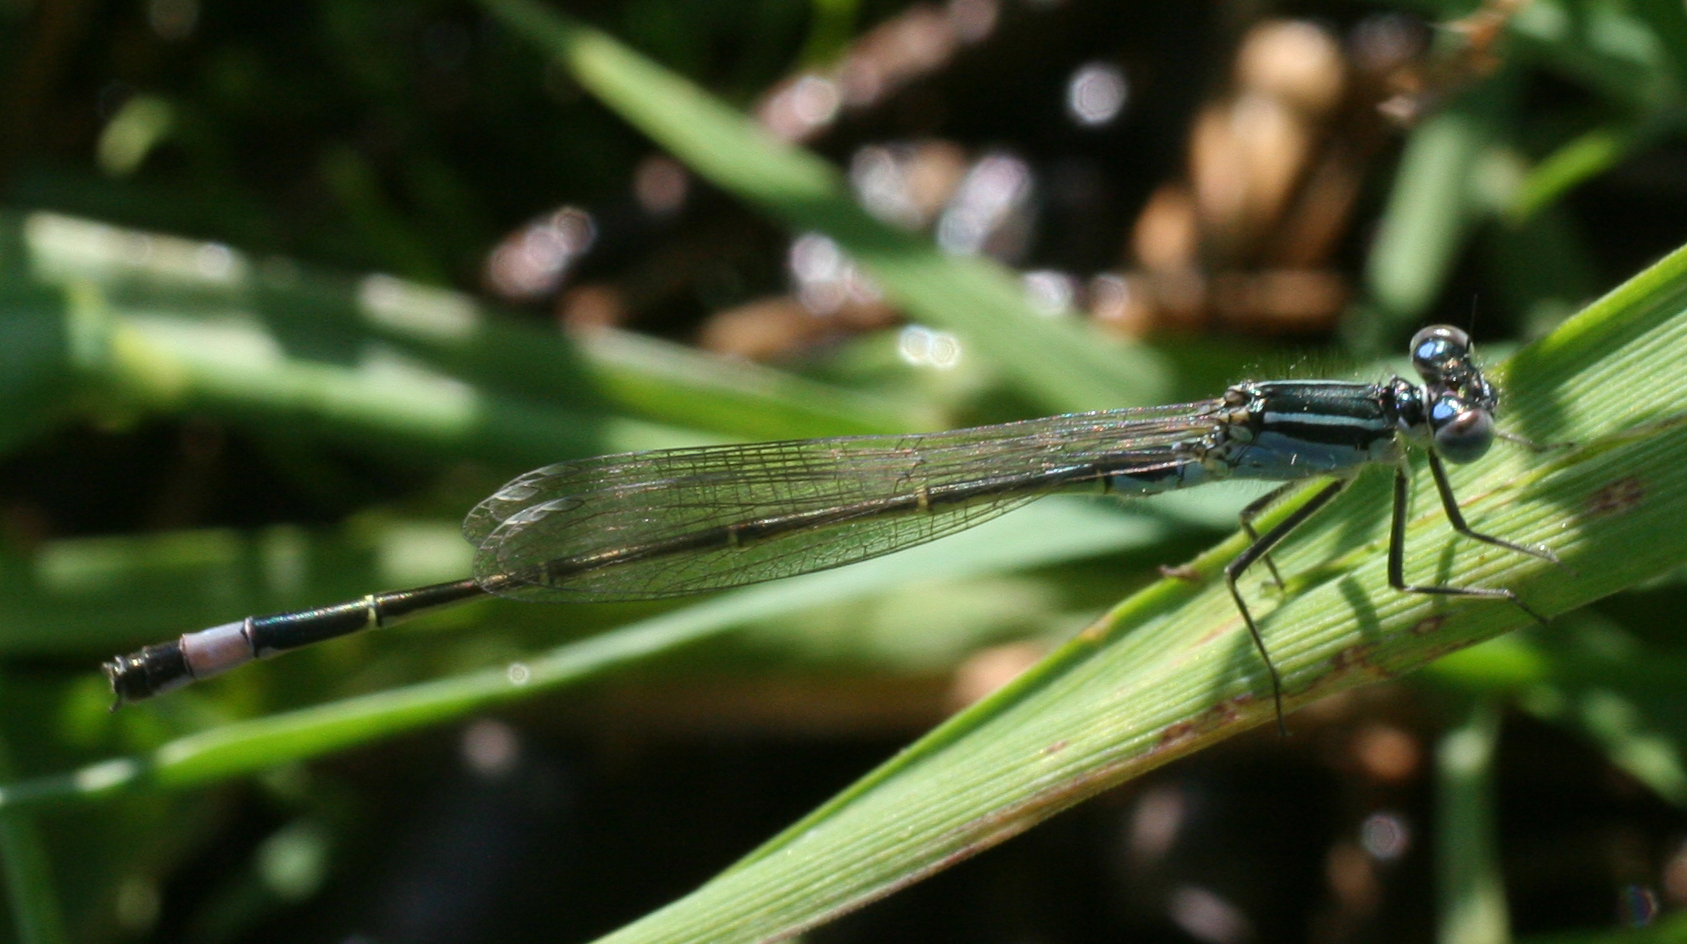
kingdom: Animalia
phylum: Arthropoda
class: Insecta
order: Odonata
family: Coenagrionidae
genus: Ischnura
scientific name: Ischnura elegans
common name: Blue-tailed damselfly
